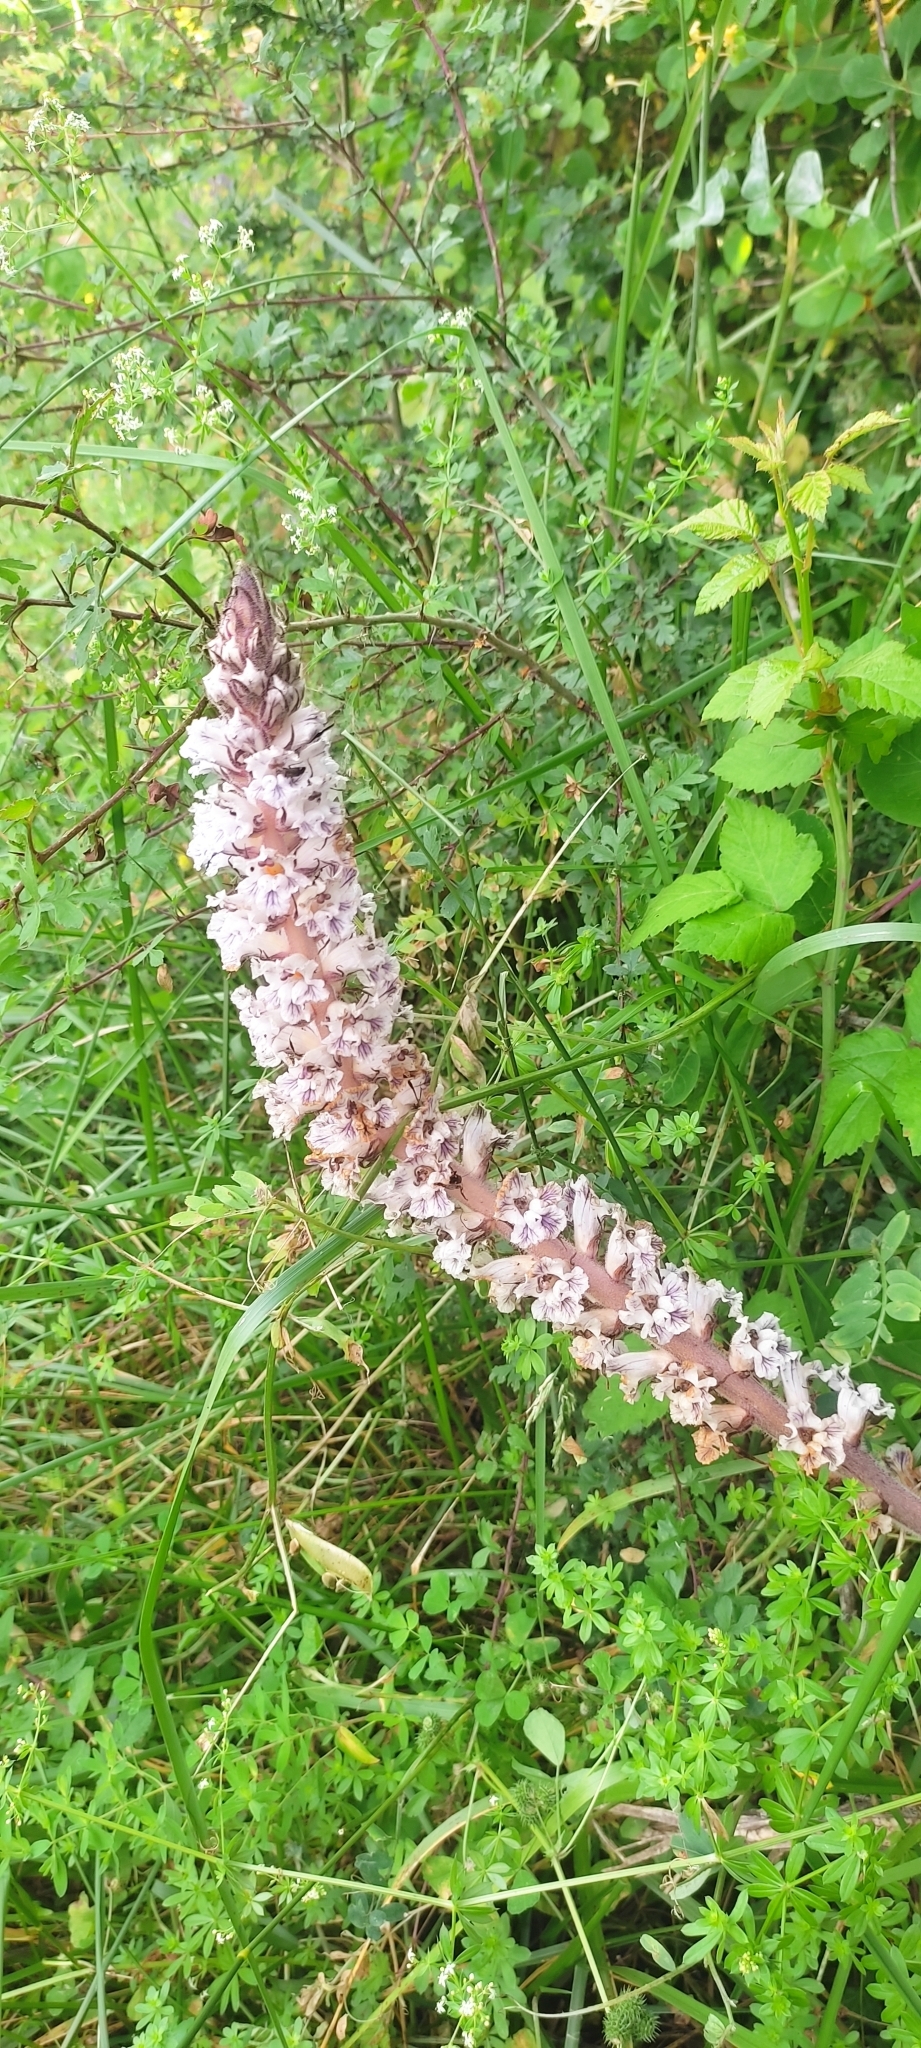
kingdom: Plantae
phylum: Tracheophyta
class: Magnoliopsida
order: Lamiales
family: Orobanchaceae
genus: Orobanche
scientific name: Orobanche crenata
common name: Bean broomrape
